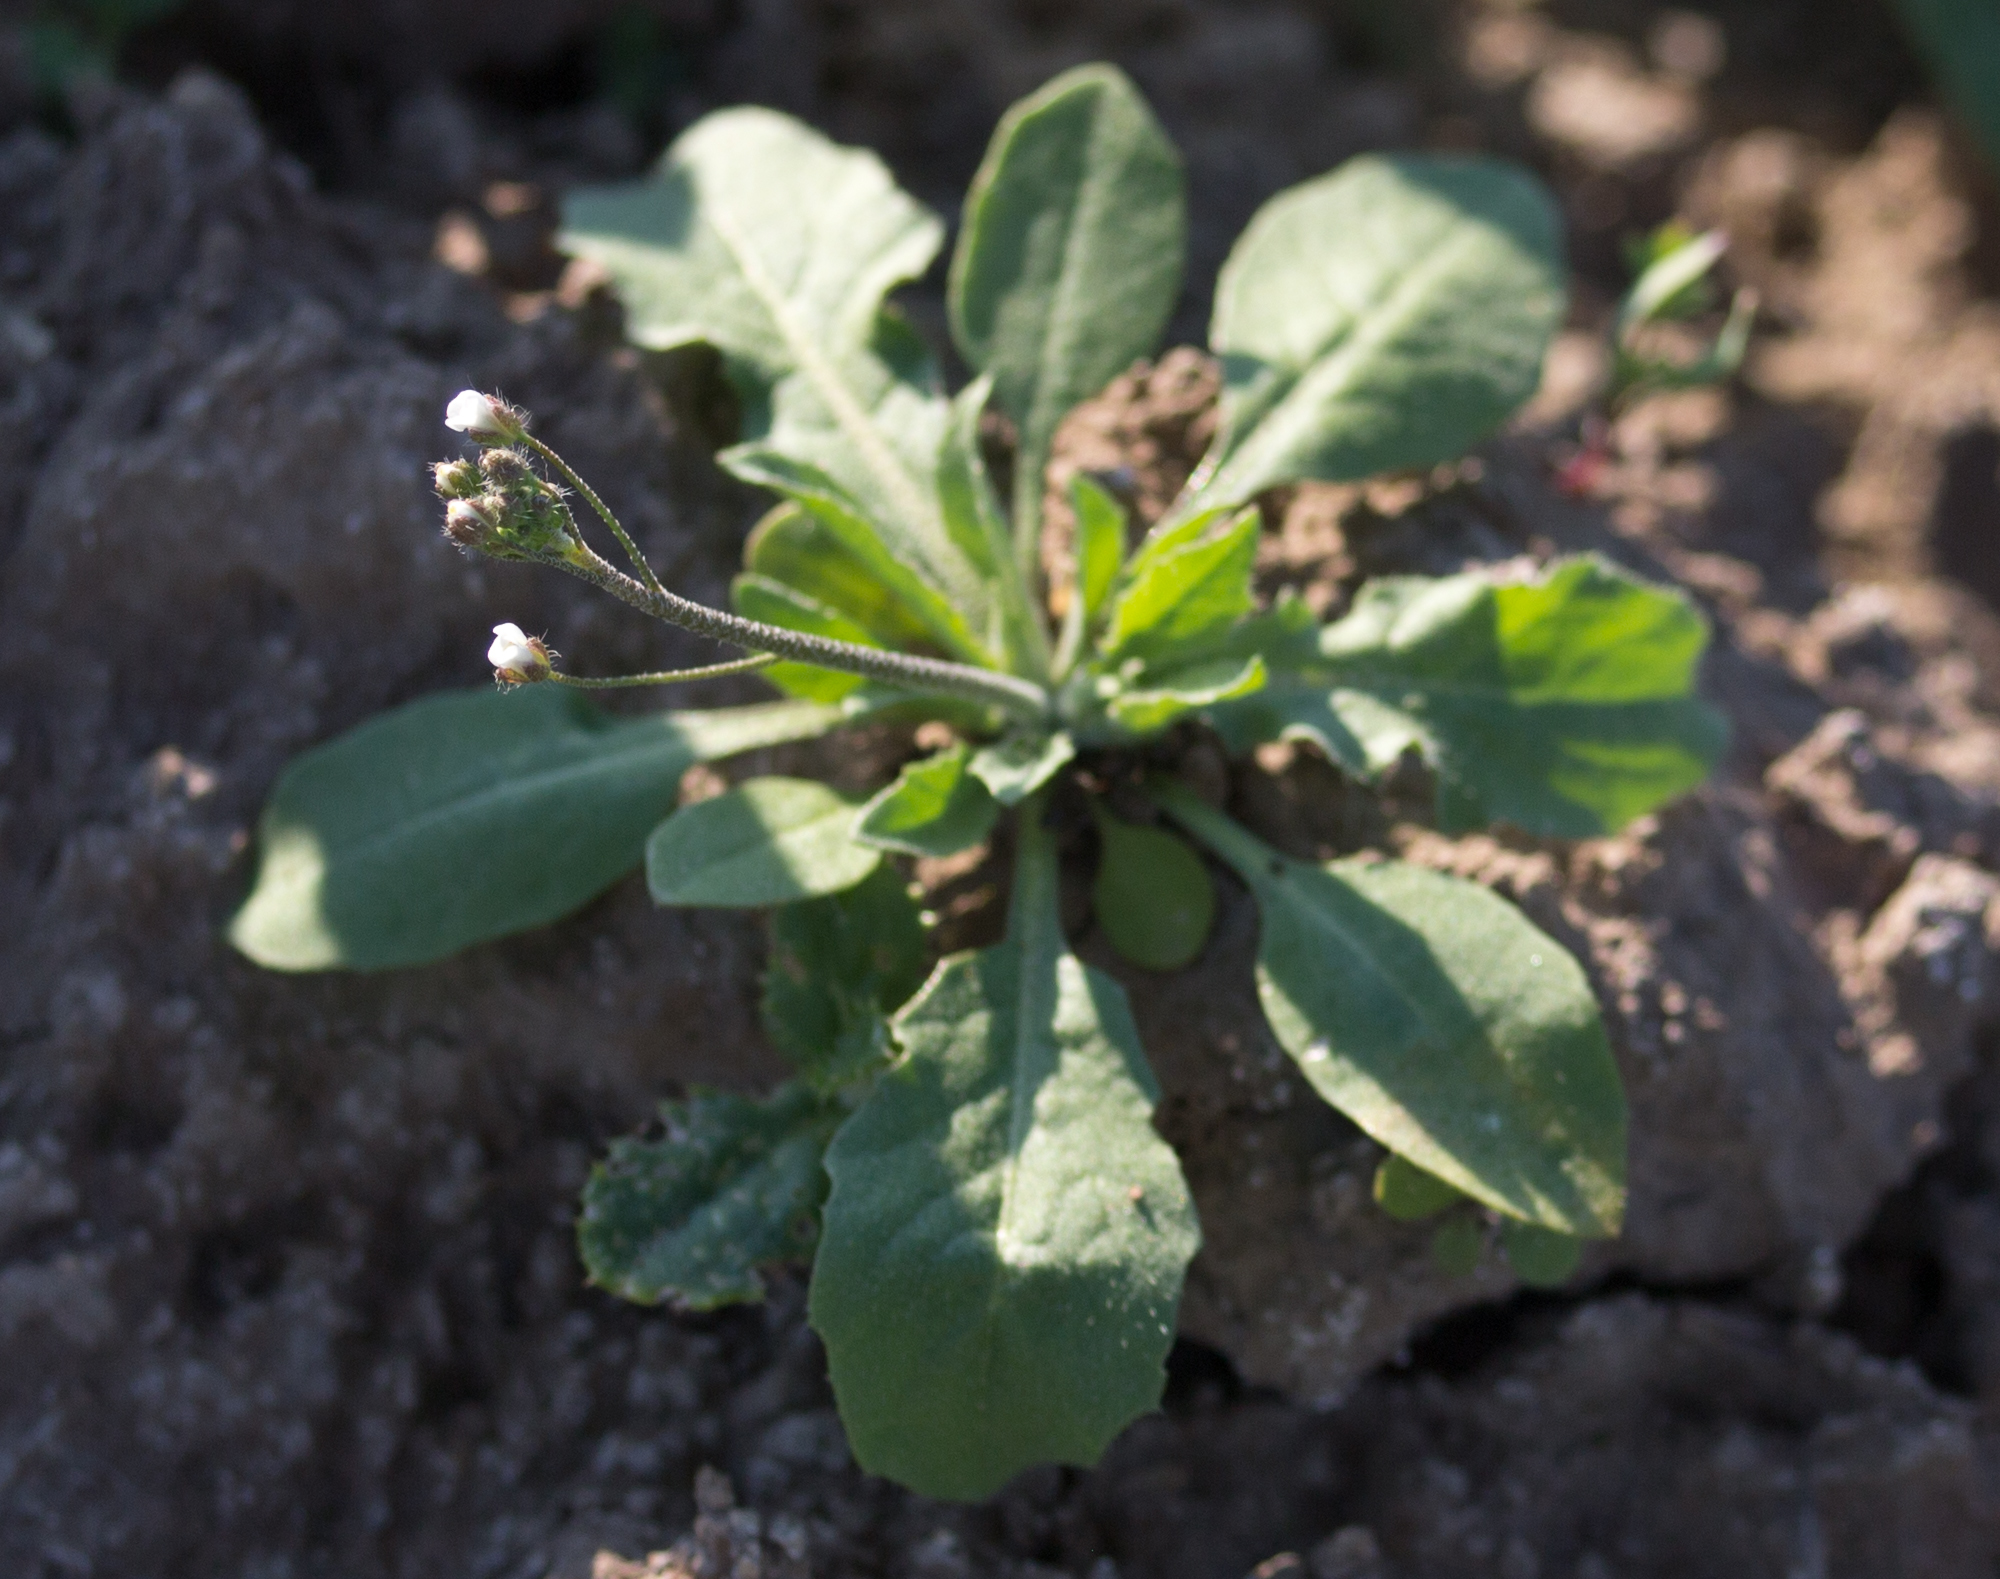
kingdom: Plantae
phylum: Tracheophyta
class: Magnoliopsida
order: Brassicales
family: Brassicaceae
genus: Capsella
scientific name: Capsella bursa-pastoris
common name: Shepherd's purse
